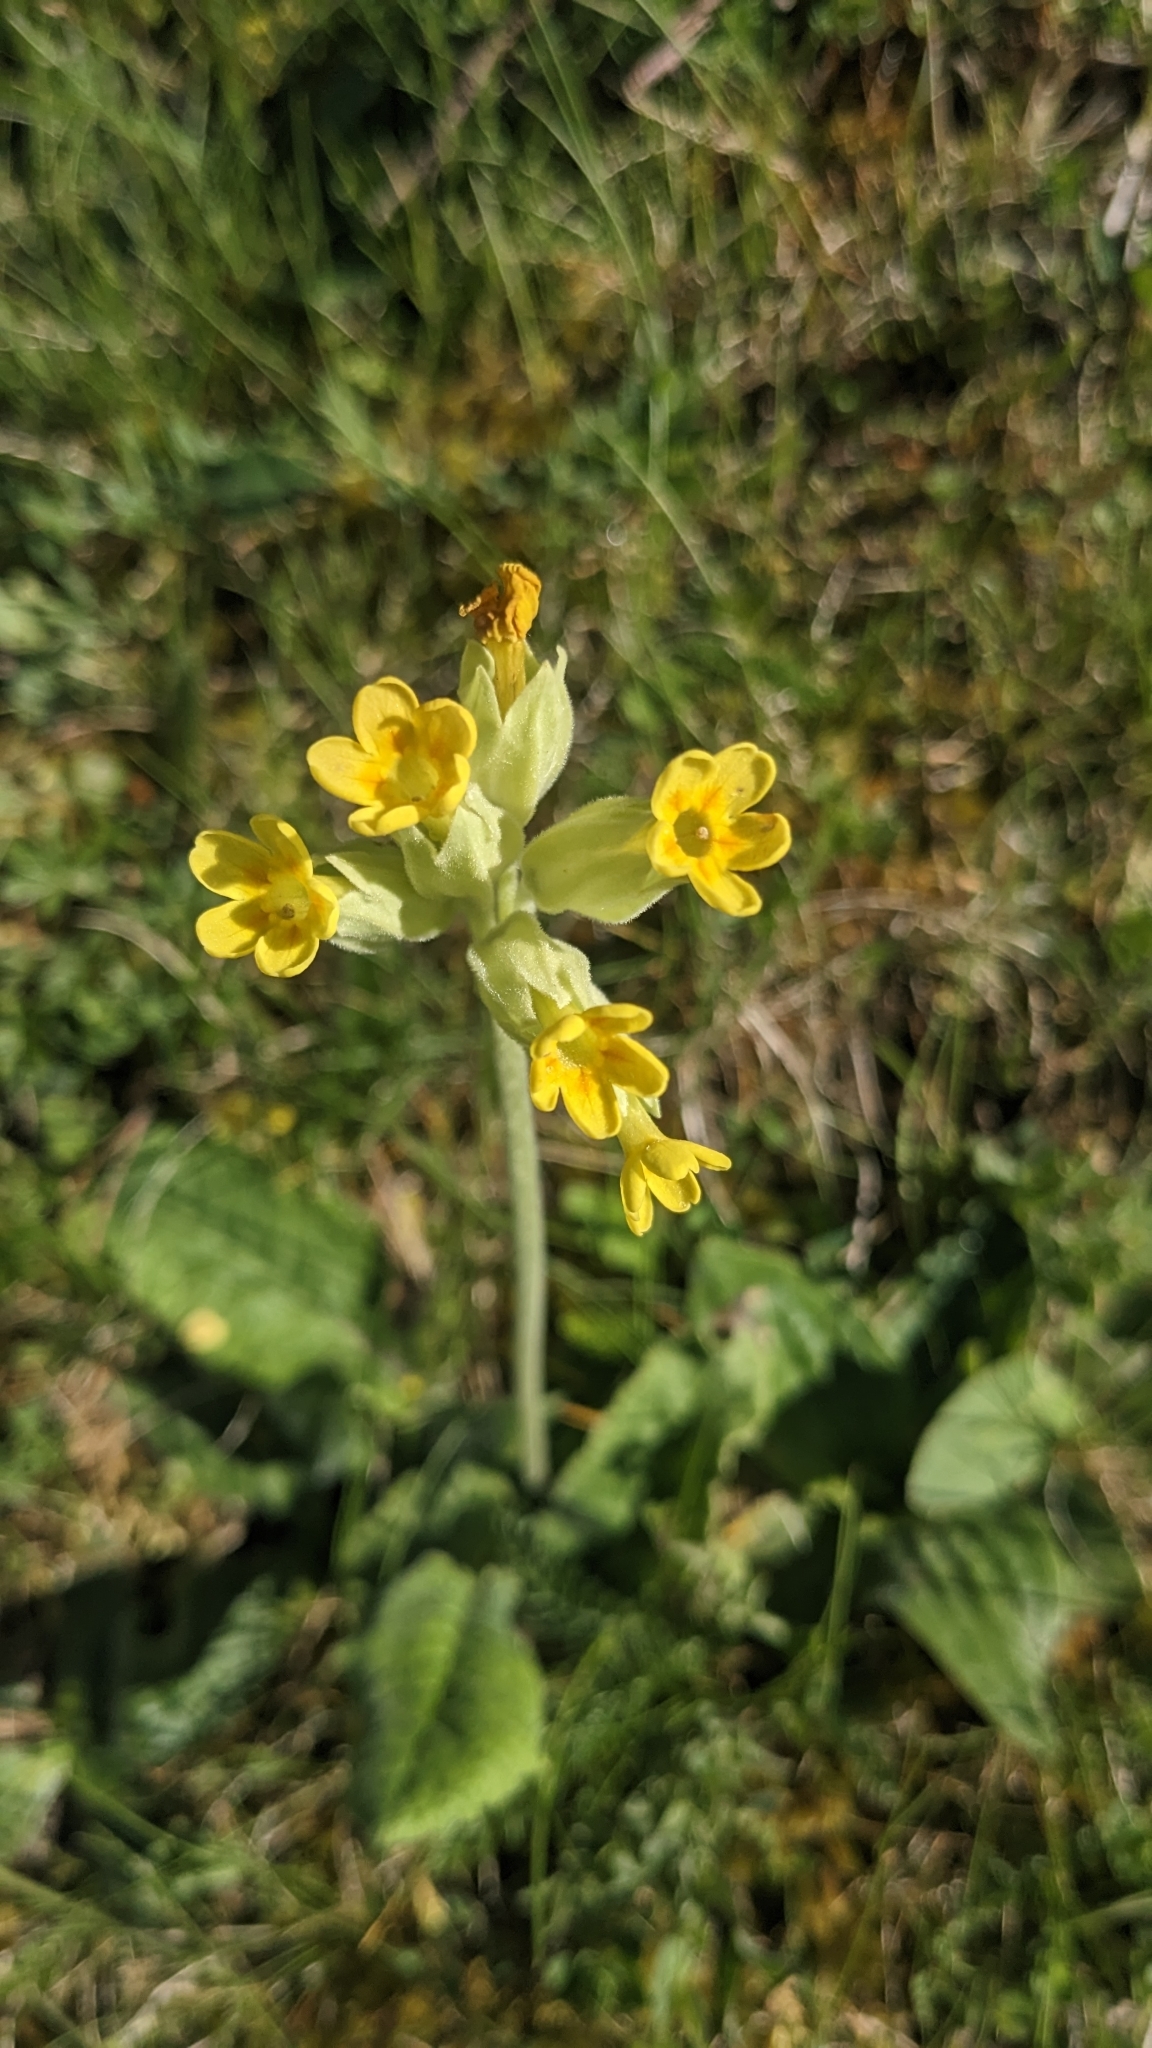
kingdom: Plantae
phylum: Tracheophyta
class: Magnoliopsida
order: Ericales
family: Primulaceae
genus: Primula
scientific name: Primula veris
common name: Cowslip
